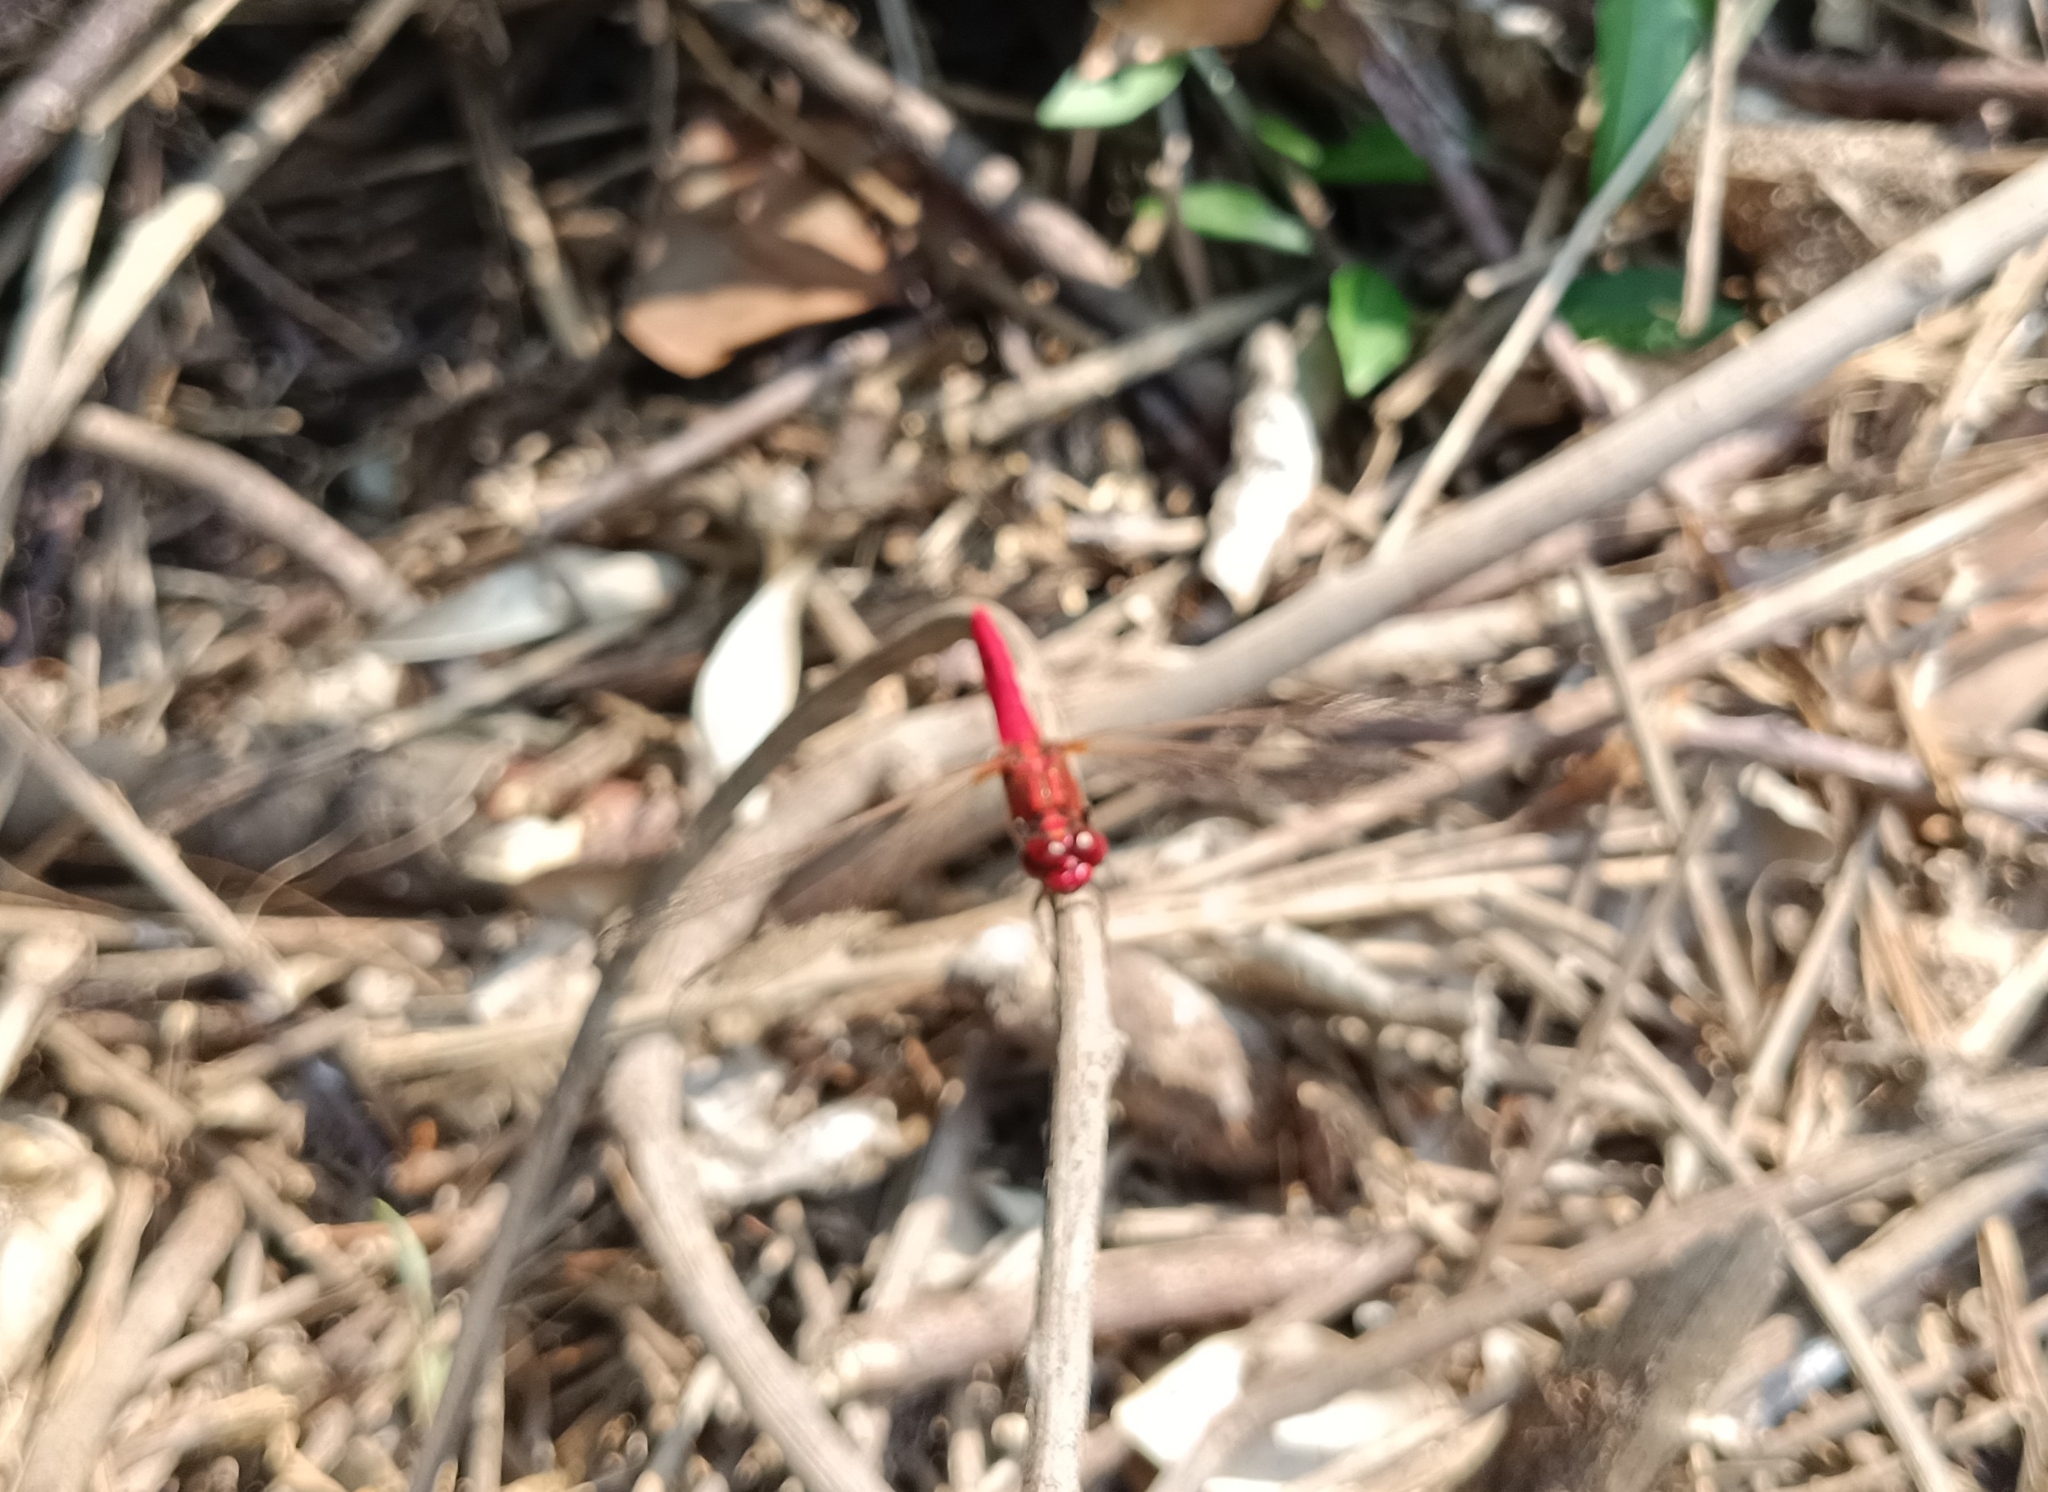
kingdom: Animalia
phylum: Arthropoda
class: Insecta
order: Odonata
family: Libellulidae
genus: Crocothemis
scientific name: Crocothemis servilia
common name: Scarlet skimmer
